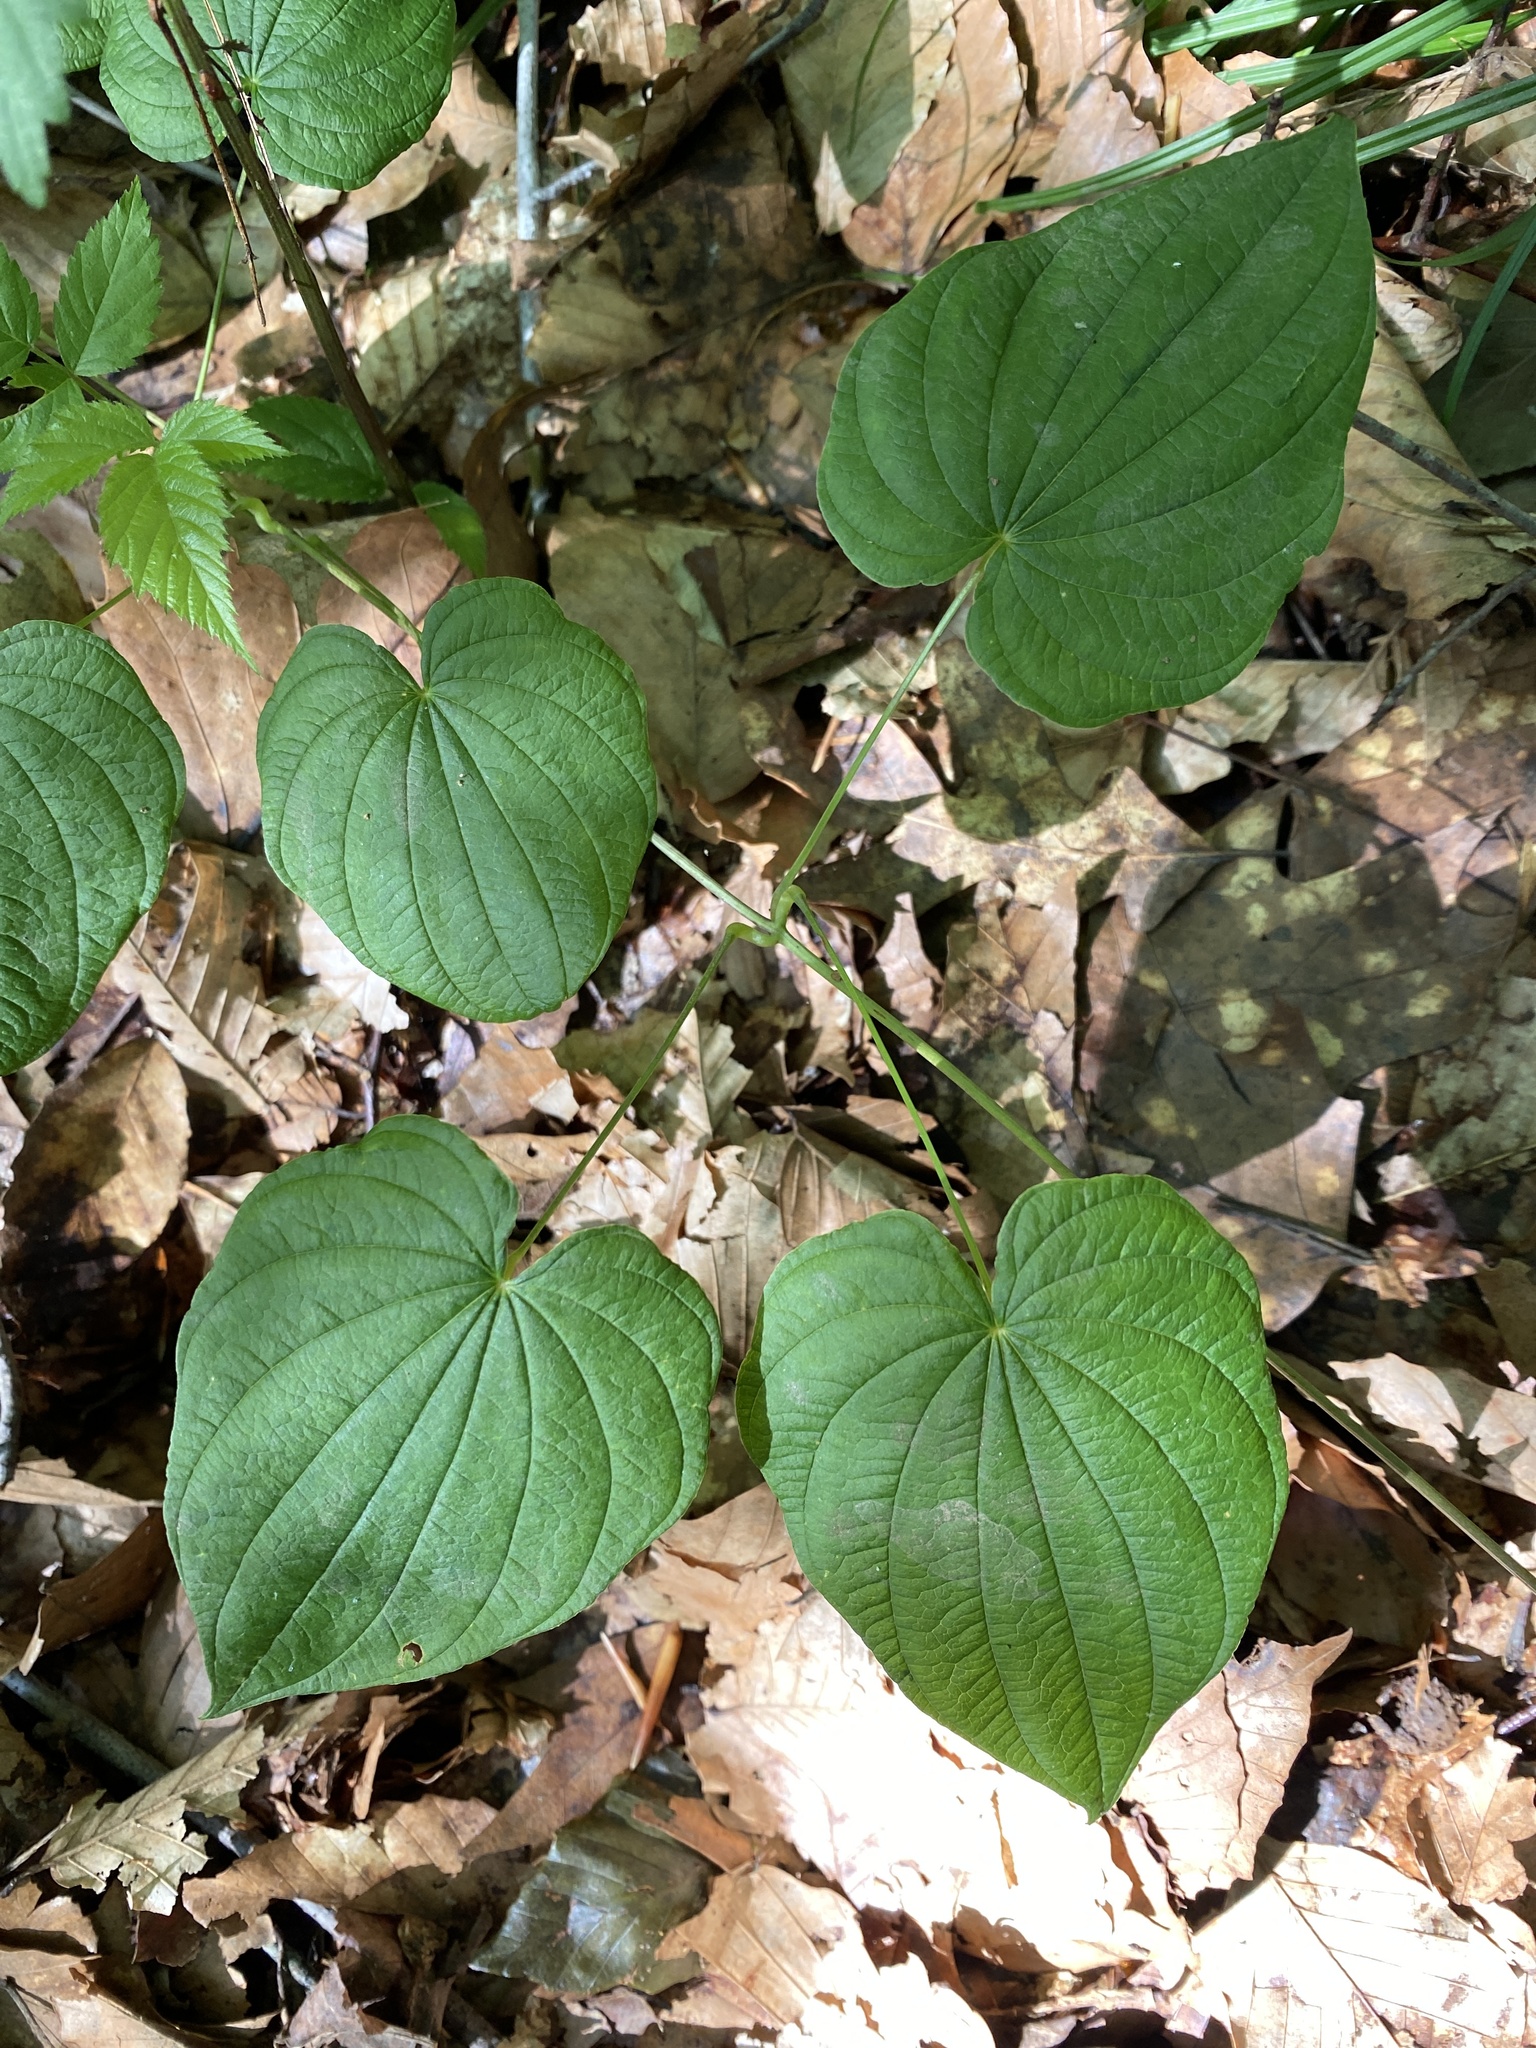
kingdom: Plantae
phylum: Tracheophyta
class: Liliopsida
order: Dioscoreales
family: Dioscoreaceae
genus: Dioscorea
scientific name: Dioscorea villosa
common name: Wild yam
